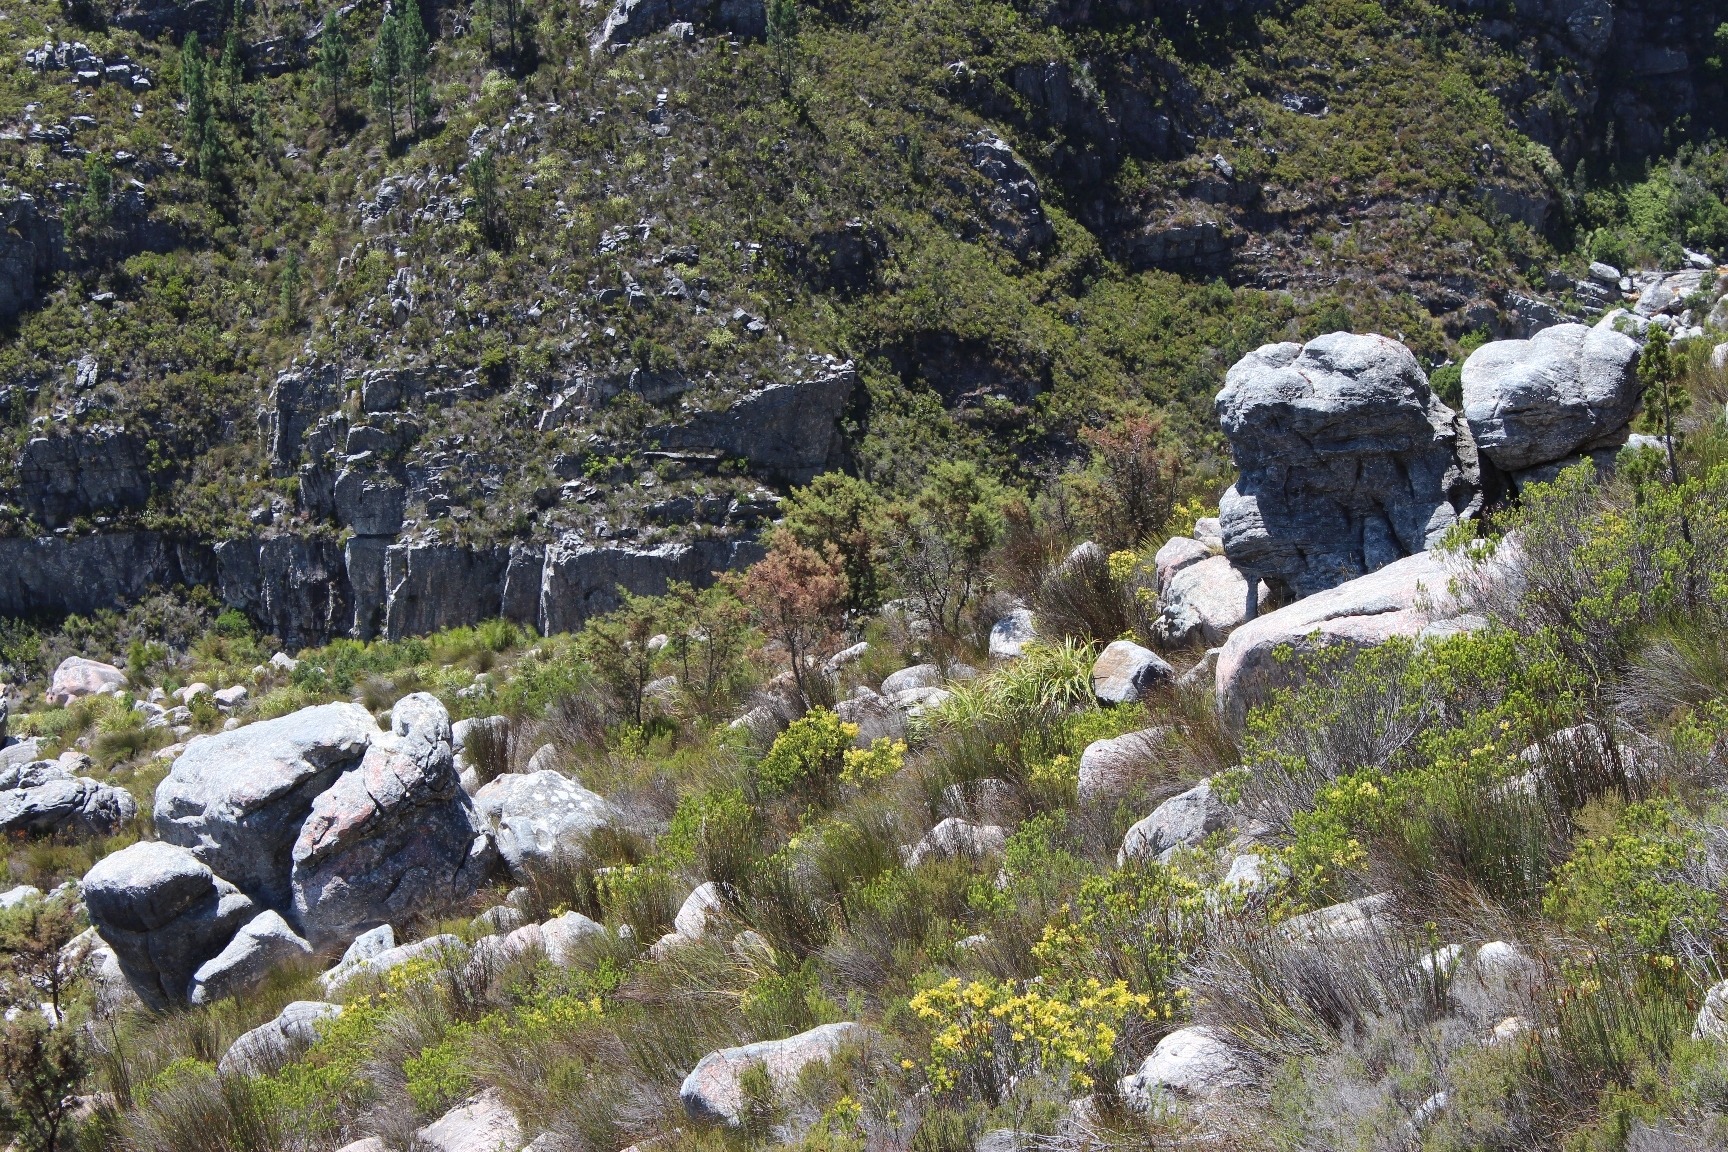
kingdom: Plantae
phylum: Tracheophyta
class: Magnoliopsida
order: Proteales
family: Proteaceae
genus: Hakea
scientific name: Hakea sericea
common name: Needle bush
